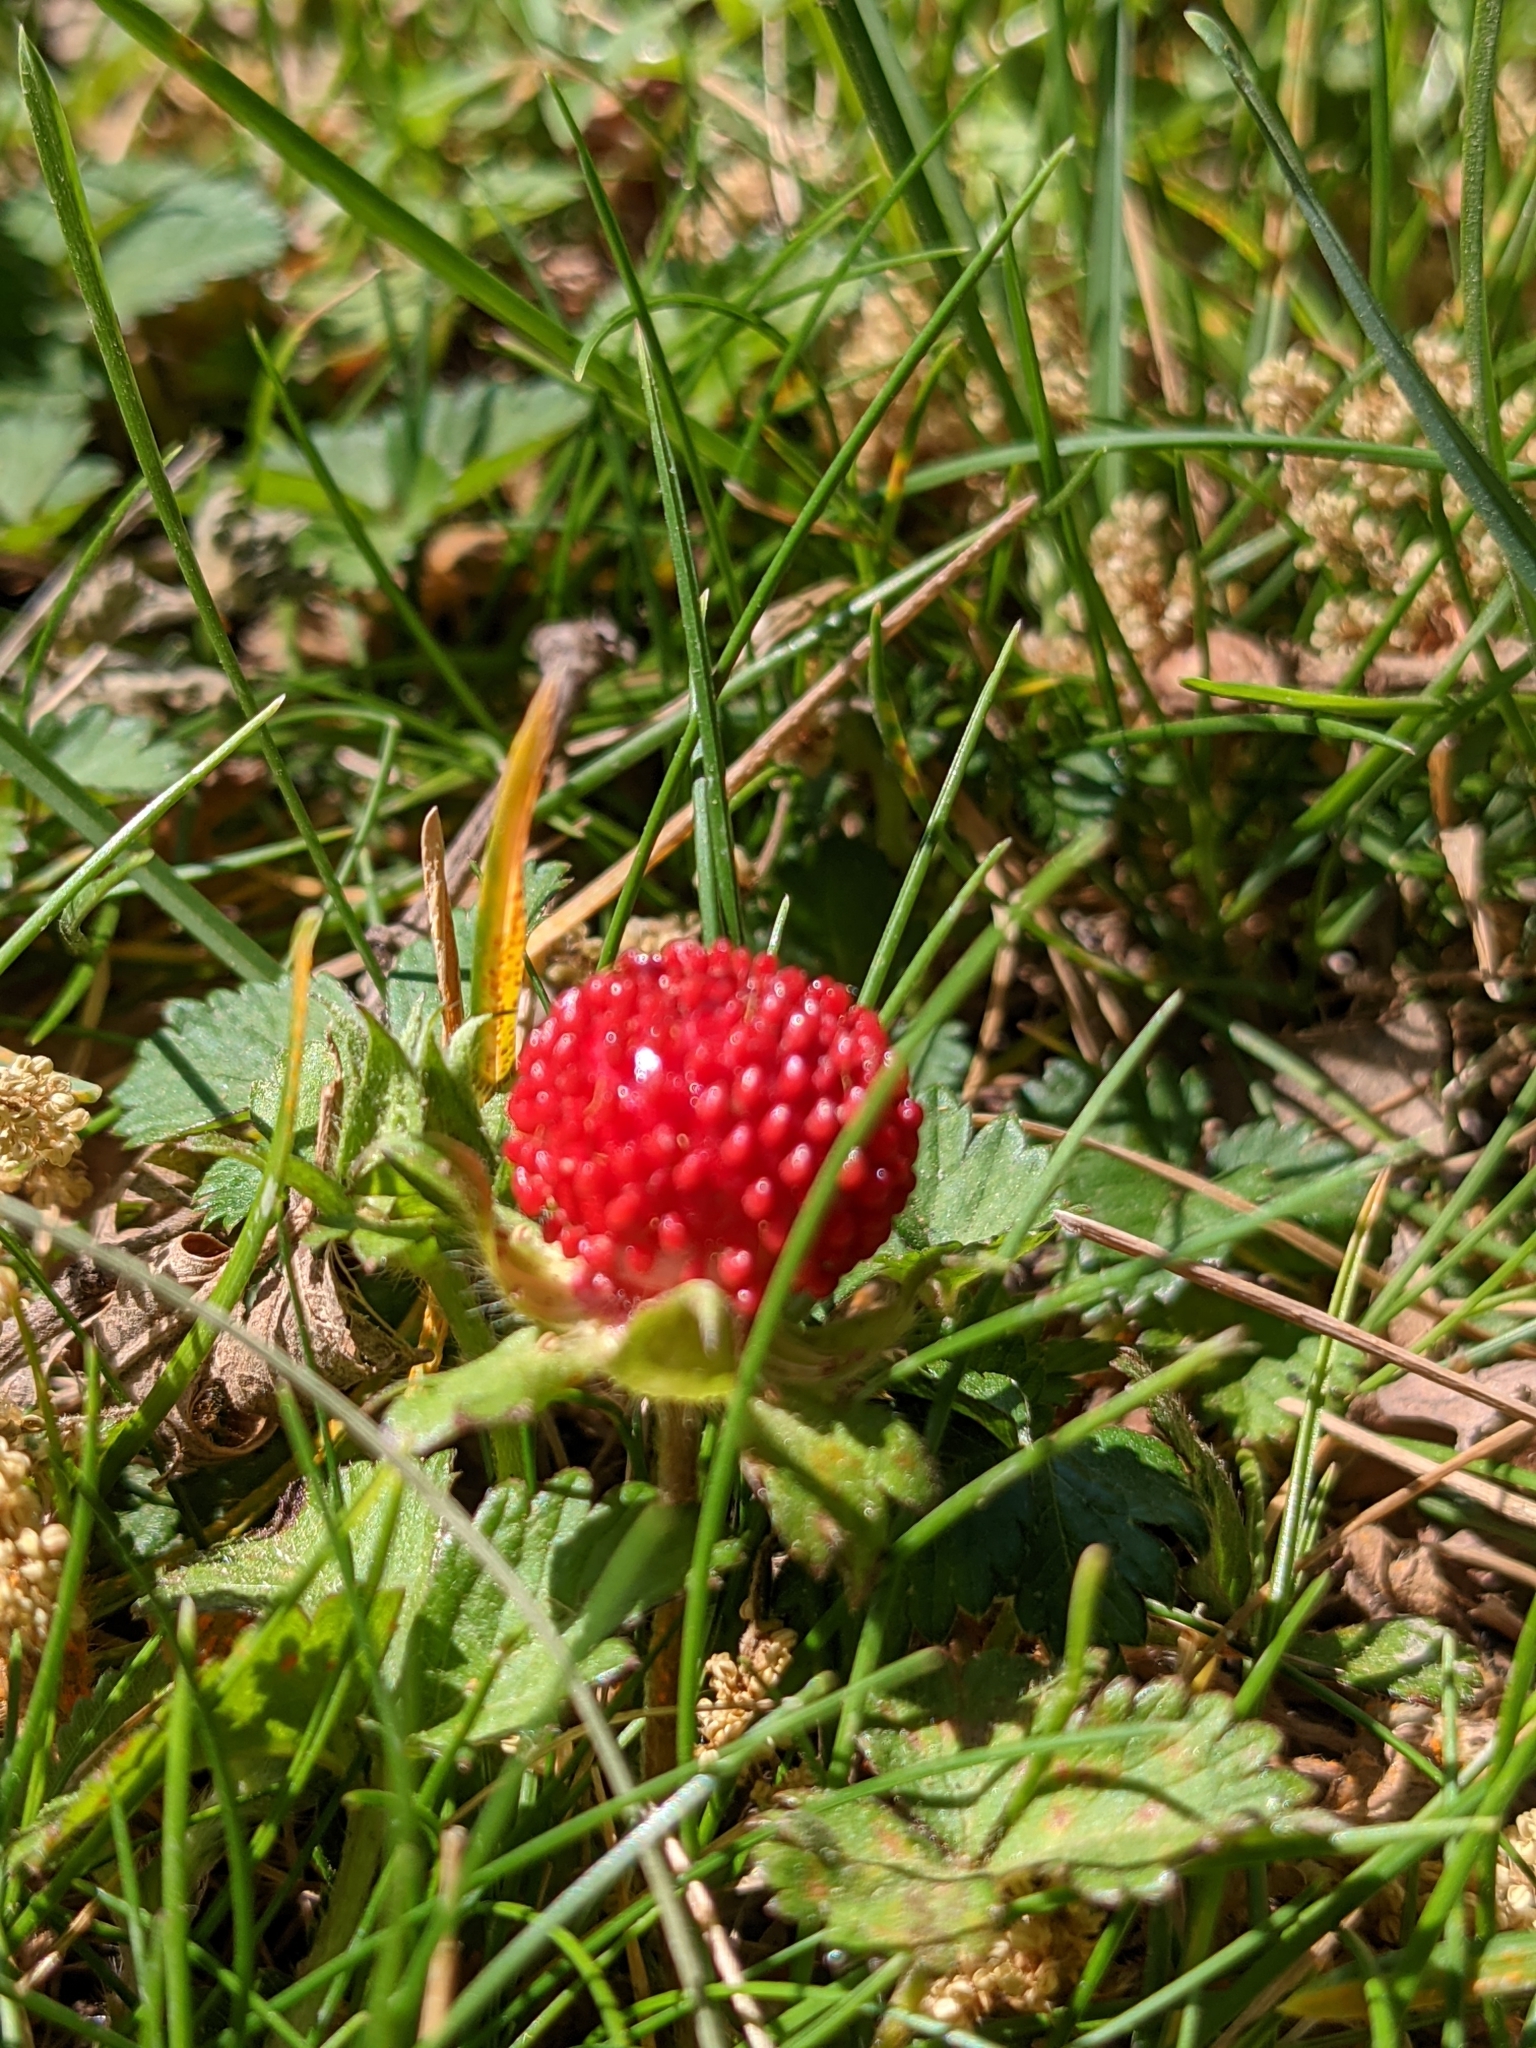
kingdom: Plantae
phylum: Tracheophyta
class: Magnoliopsida
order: Rosales
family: Rosaceae
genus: Potentilla
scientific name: Potentilla indica
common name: Yellow-flowered strawberry
